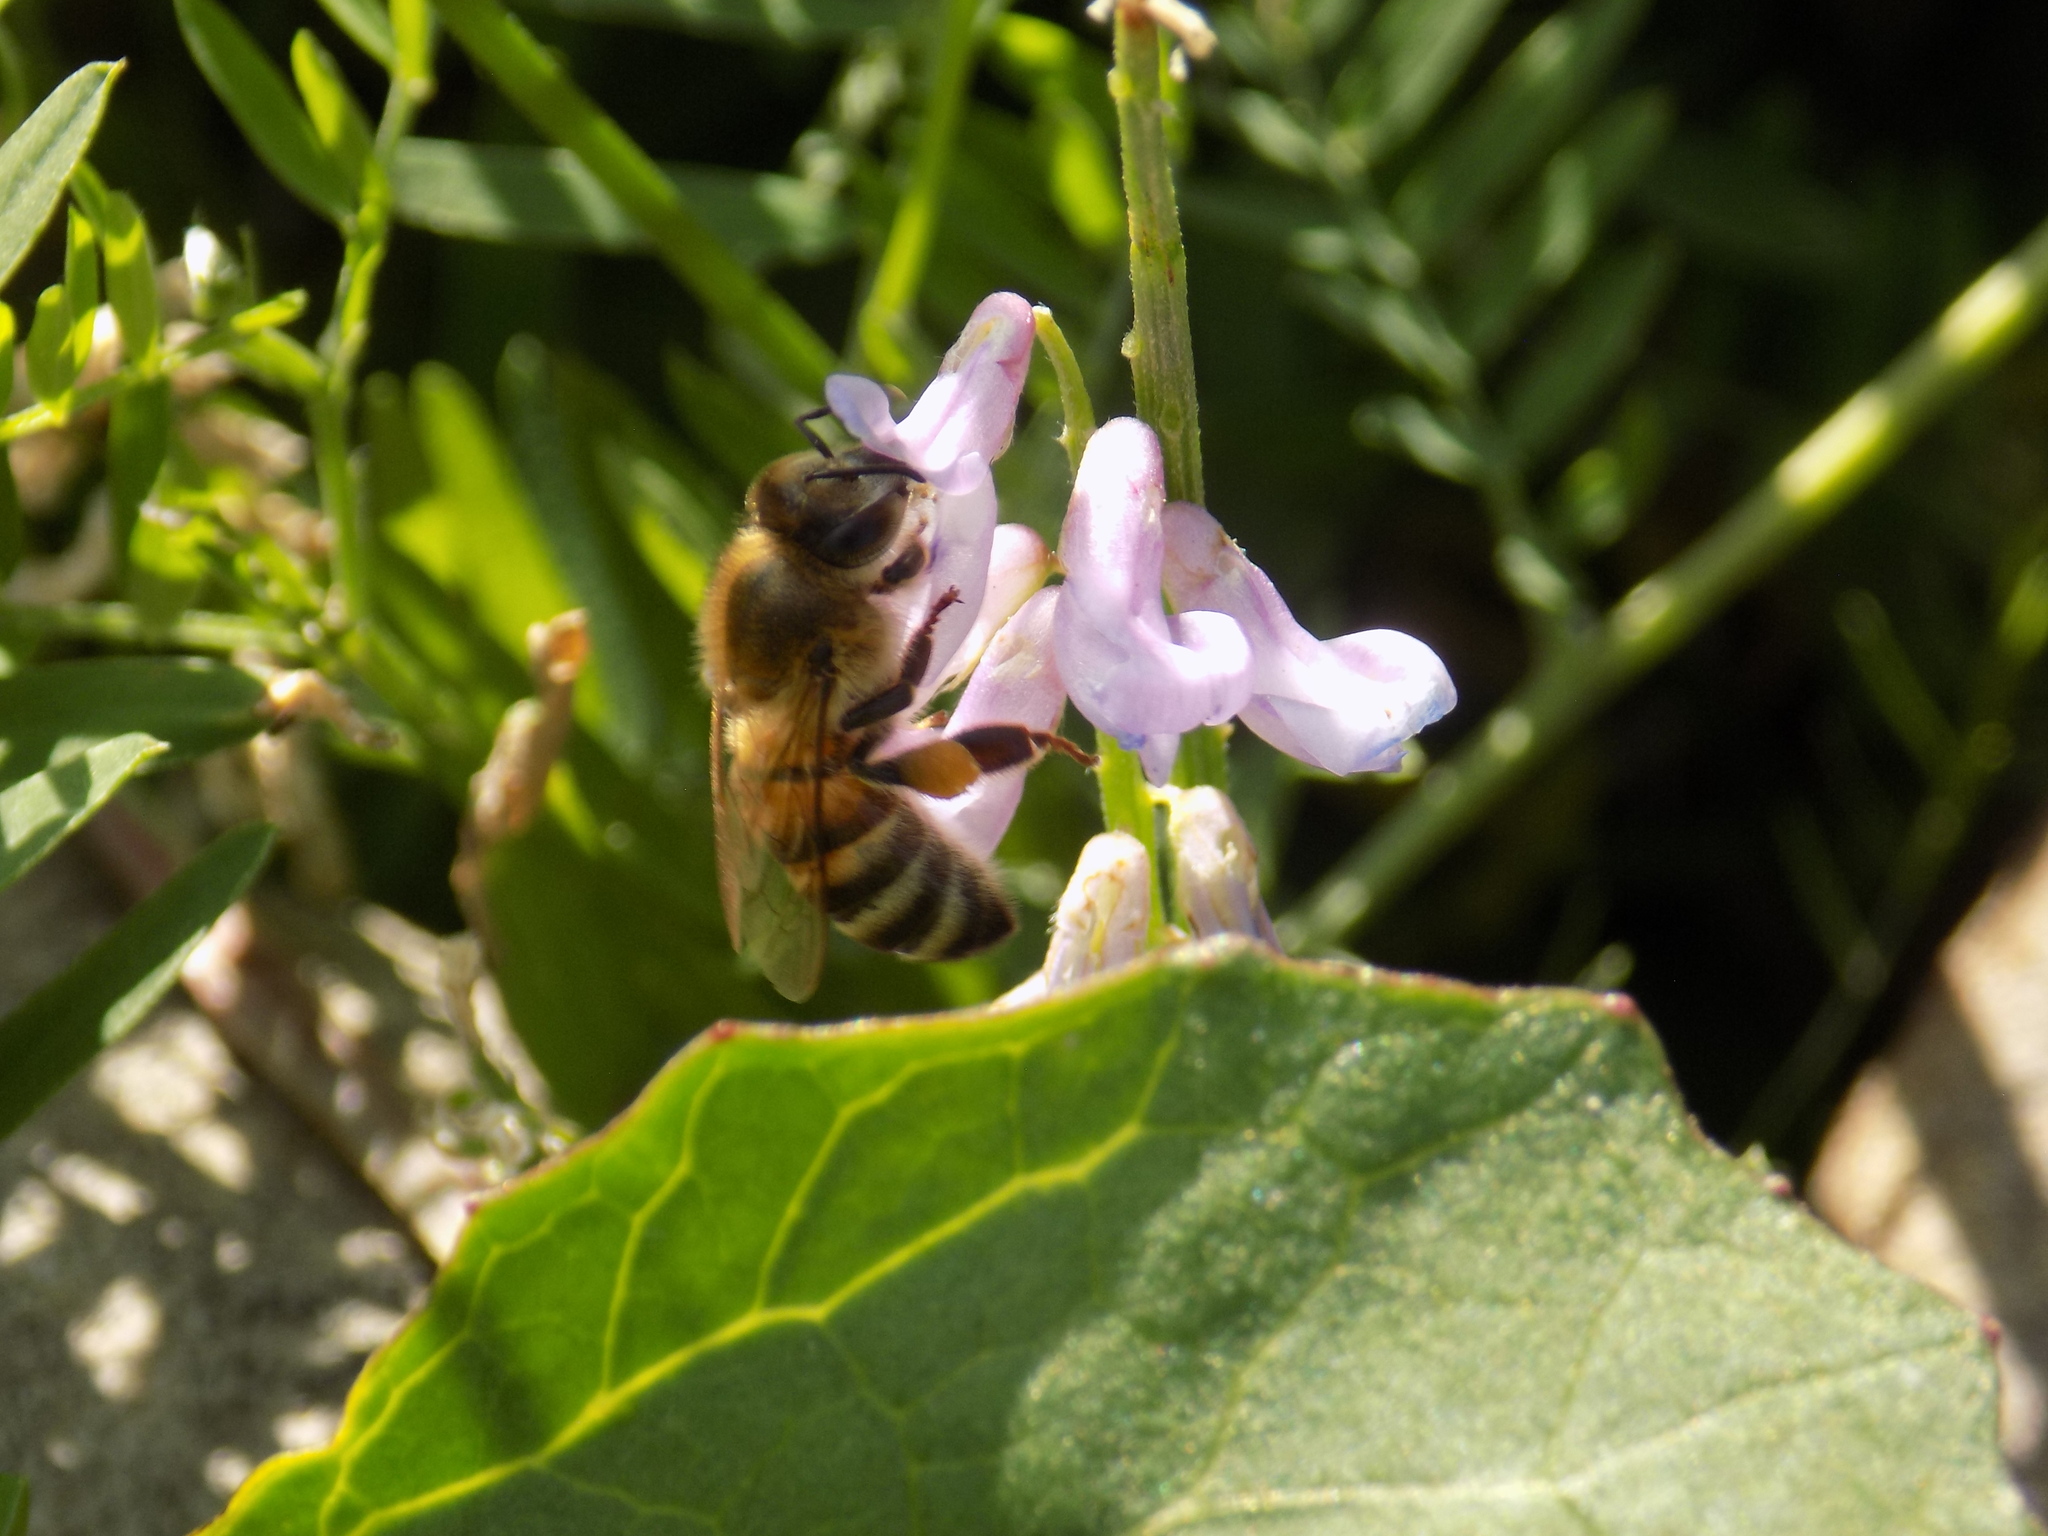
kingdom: Animalia
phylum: Arthropoda
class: Insecta
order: Hymenoptera
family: Apidae
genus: Apis
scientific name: Apis mellifera
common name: Honey bee
